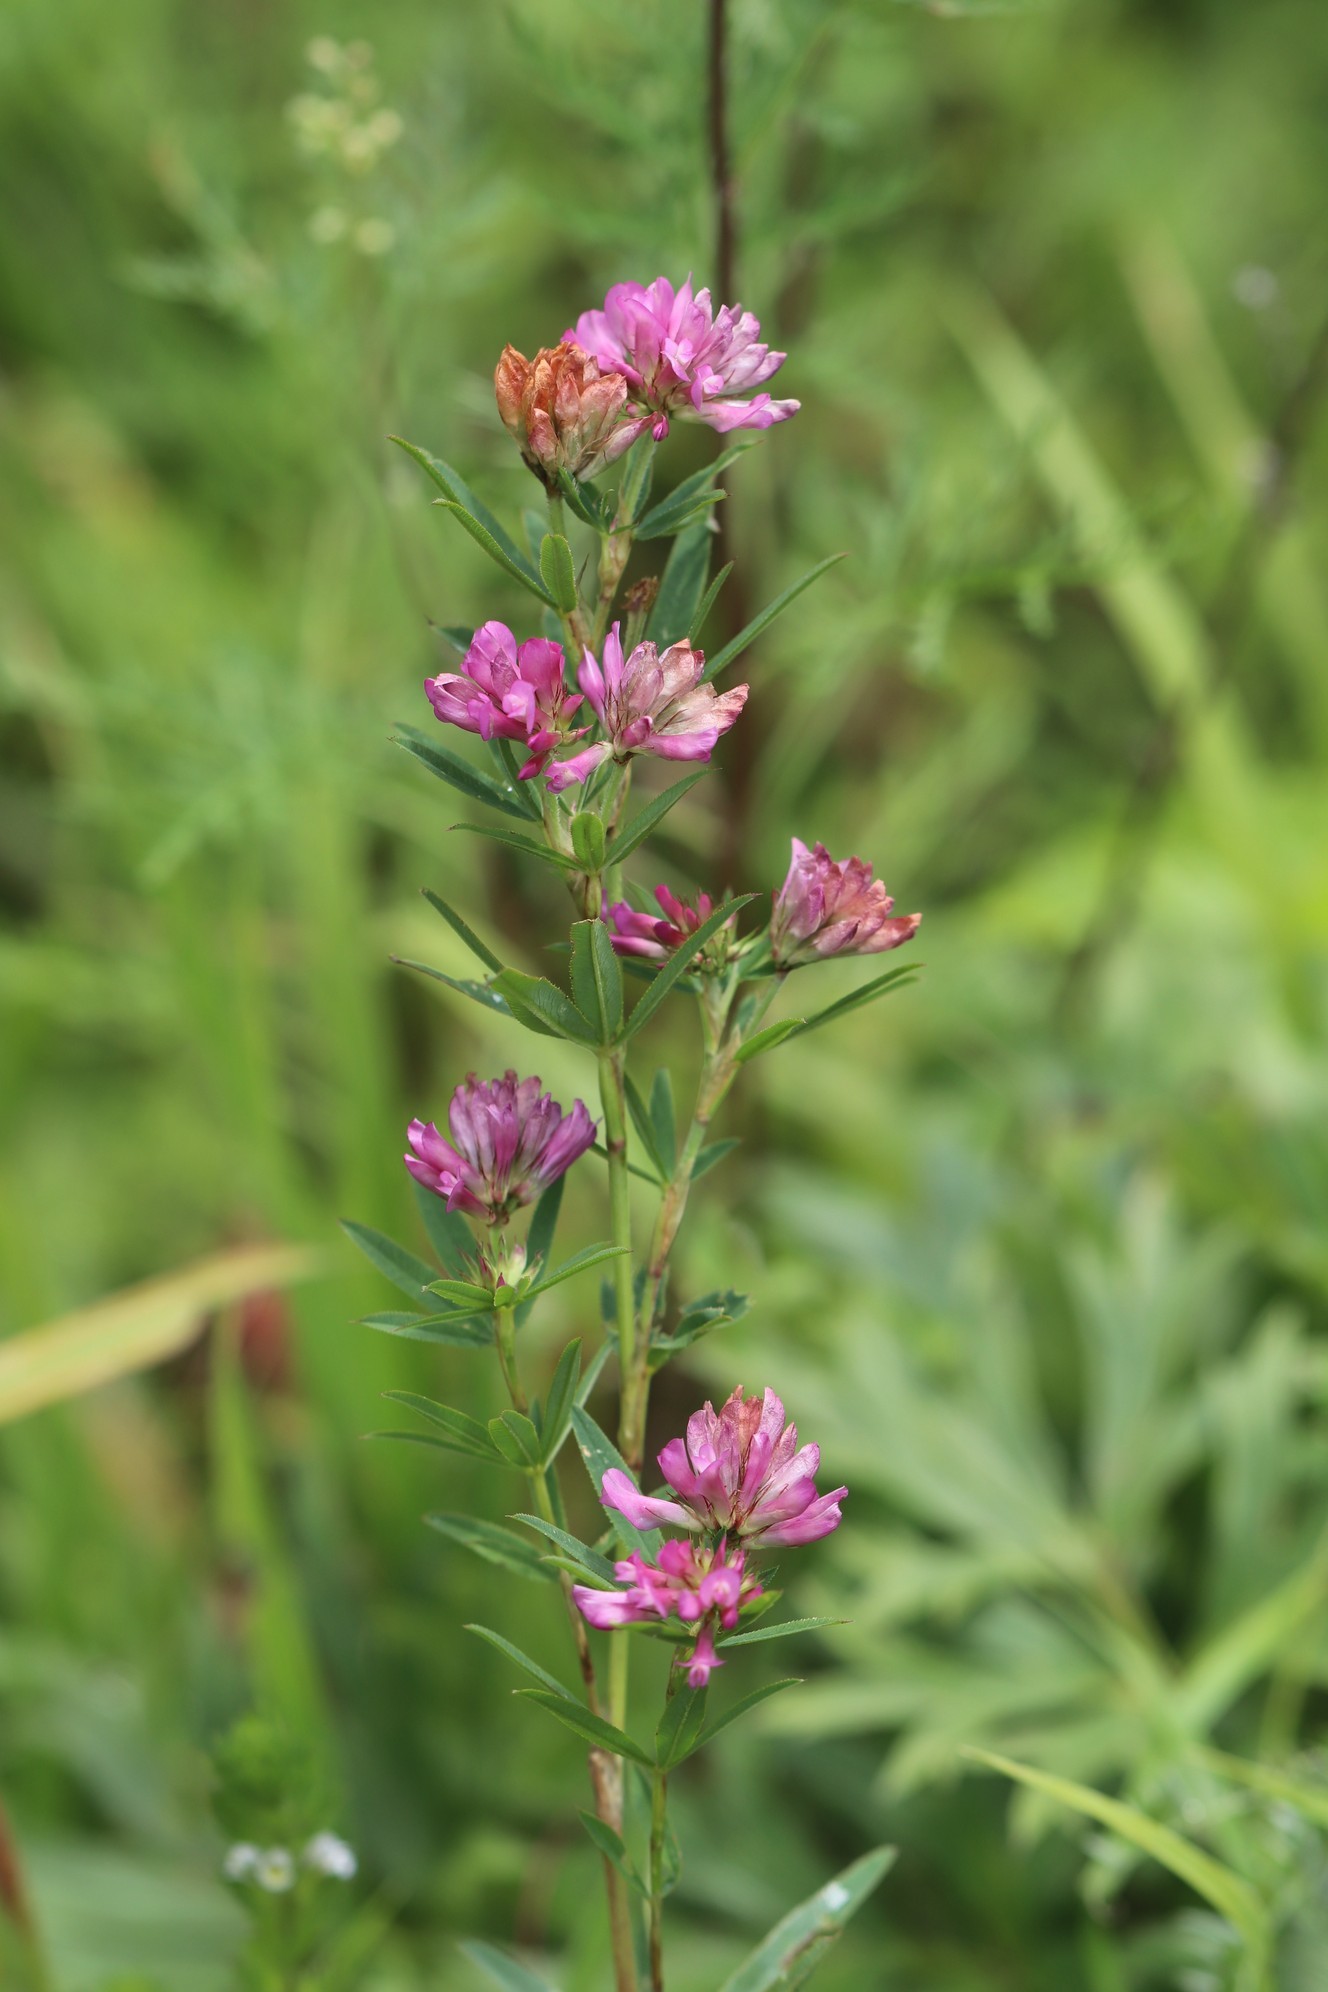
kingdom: Plantae
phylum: Tracheophyta
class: Magnoliopsida
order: Fabales
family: Fabaceae
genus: Trifolium
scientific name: Trifolium lupinaster
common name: Lupine clover
